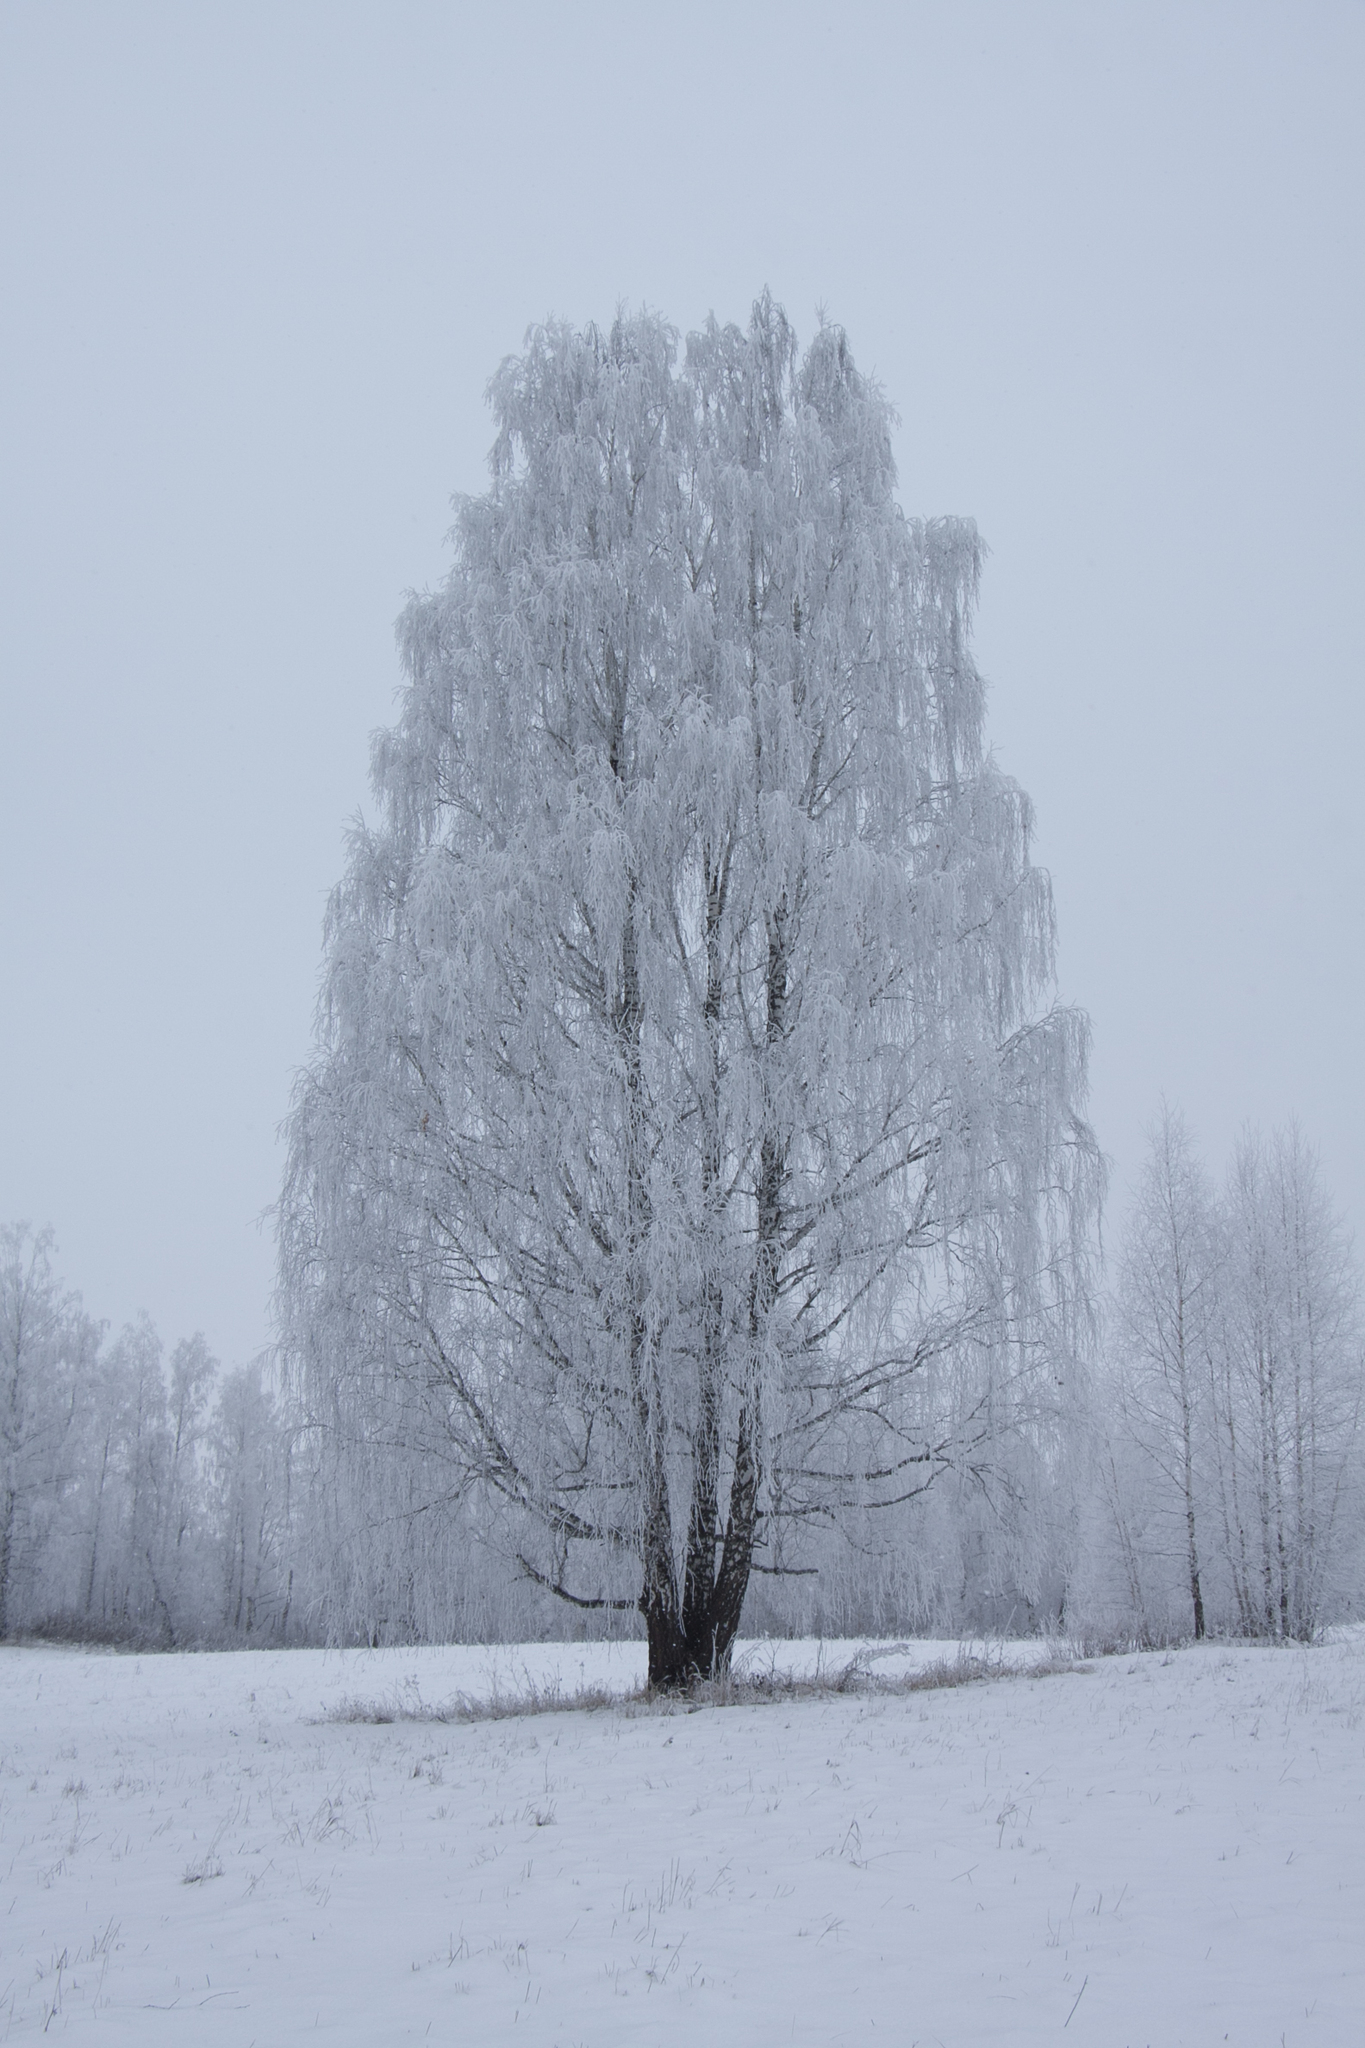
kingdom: Plantae
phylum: Tracheophyta
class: Magnoliopsida
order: Fagales
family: Betulaceae
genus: Betula
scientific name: Betula pendula
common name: Silver birch
